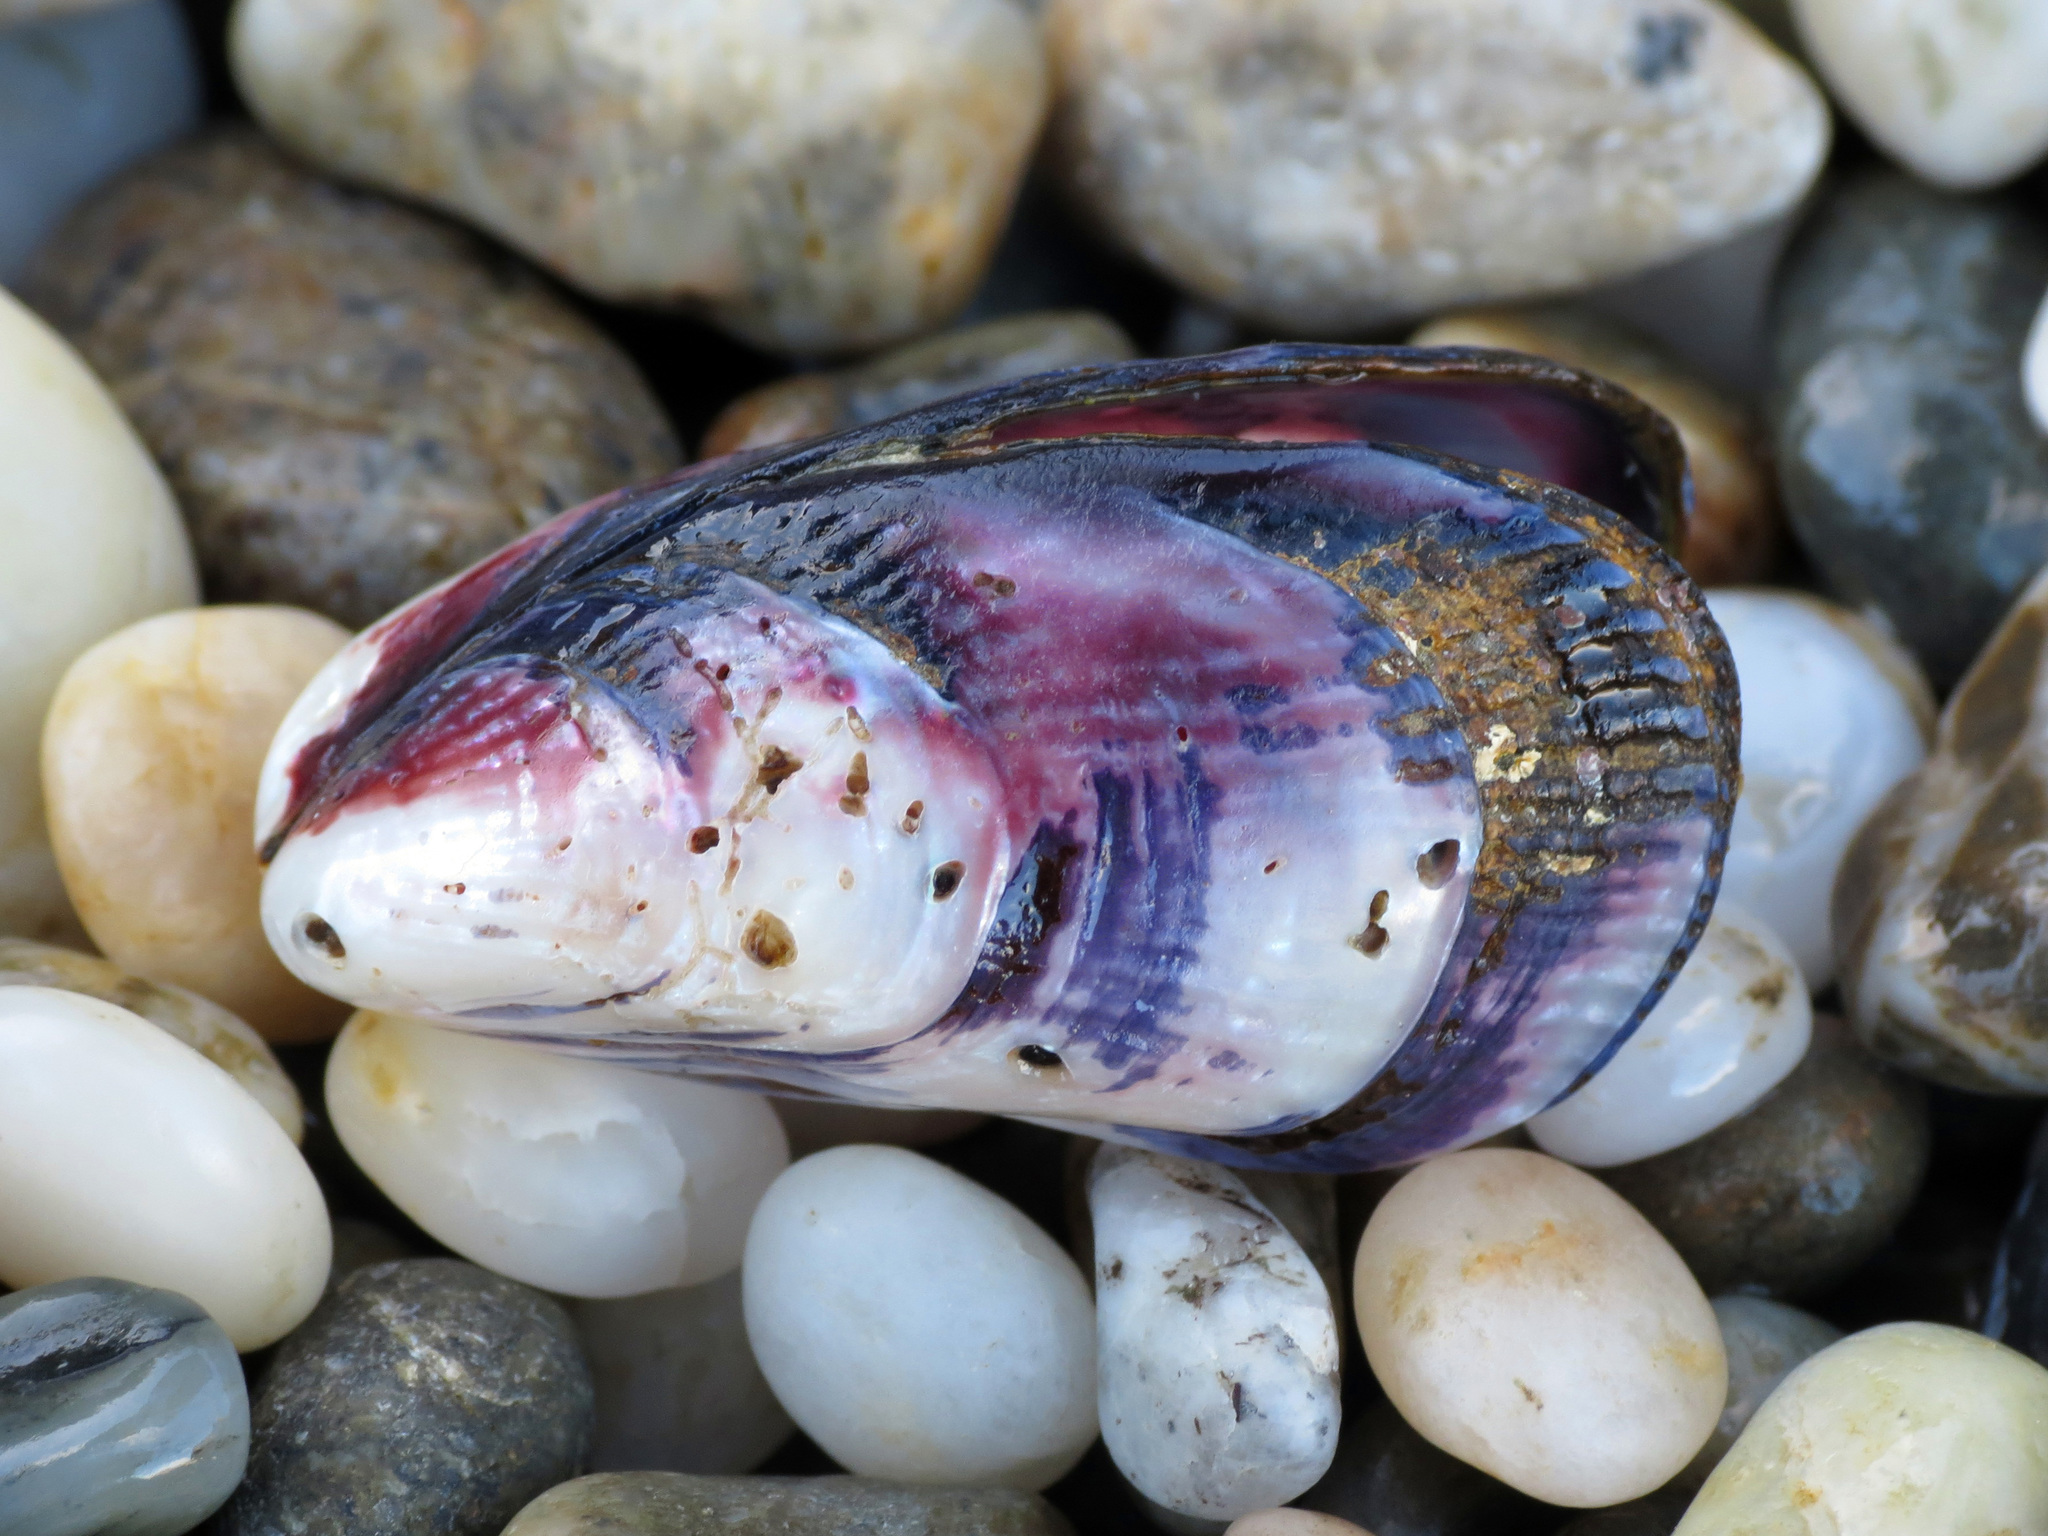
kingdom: Animalia
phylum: Mollusca
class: Bivalvia
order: Mytilida
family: Mytilidae
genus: Aulacomya
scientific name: Aulacomya maoriana
